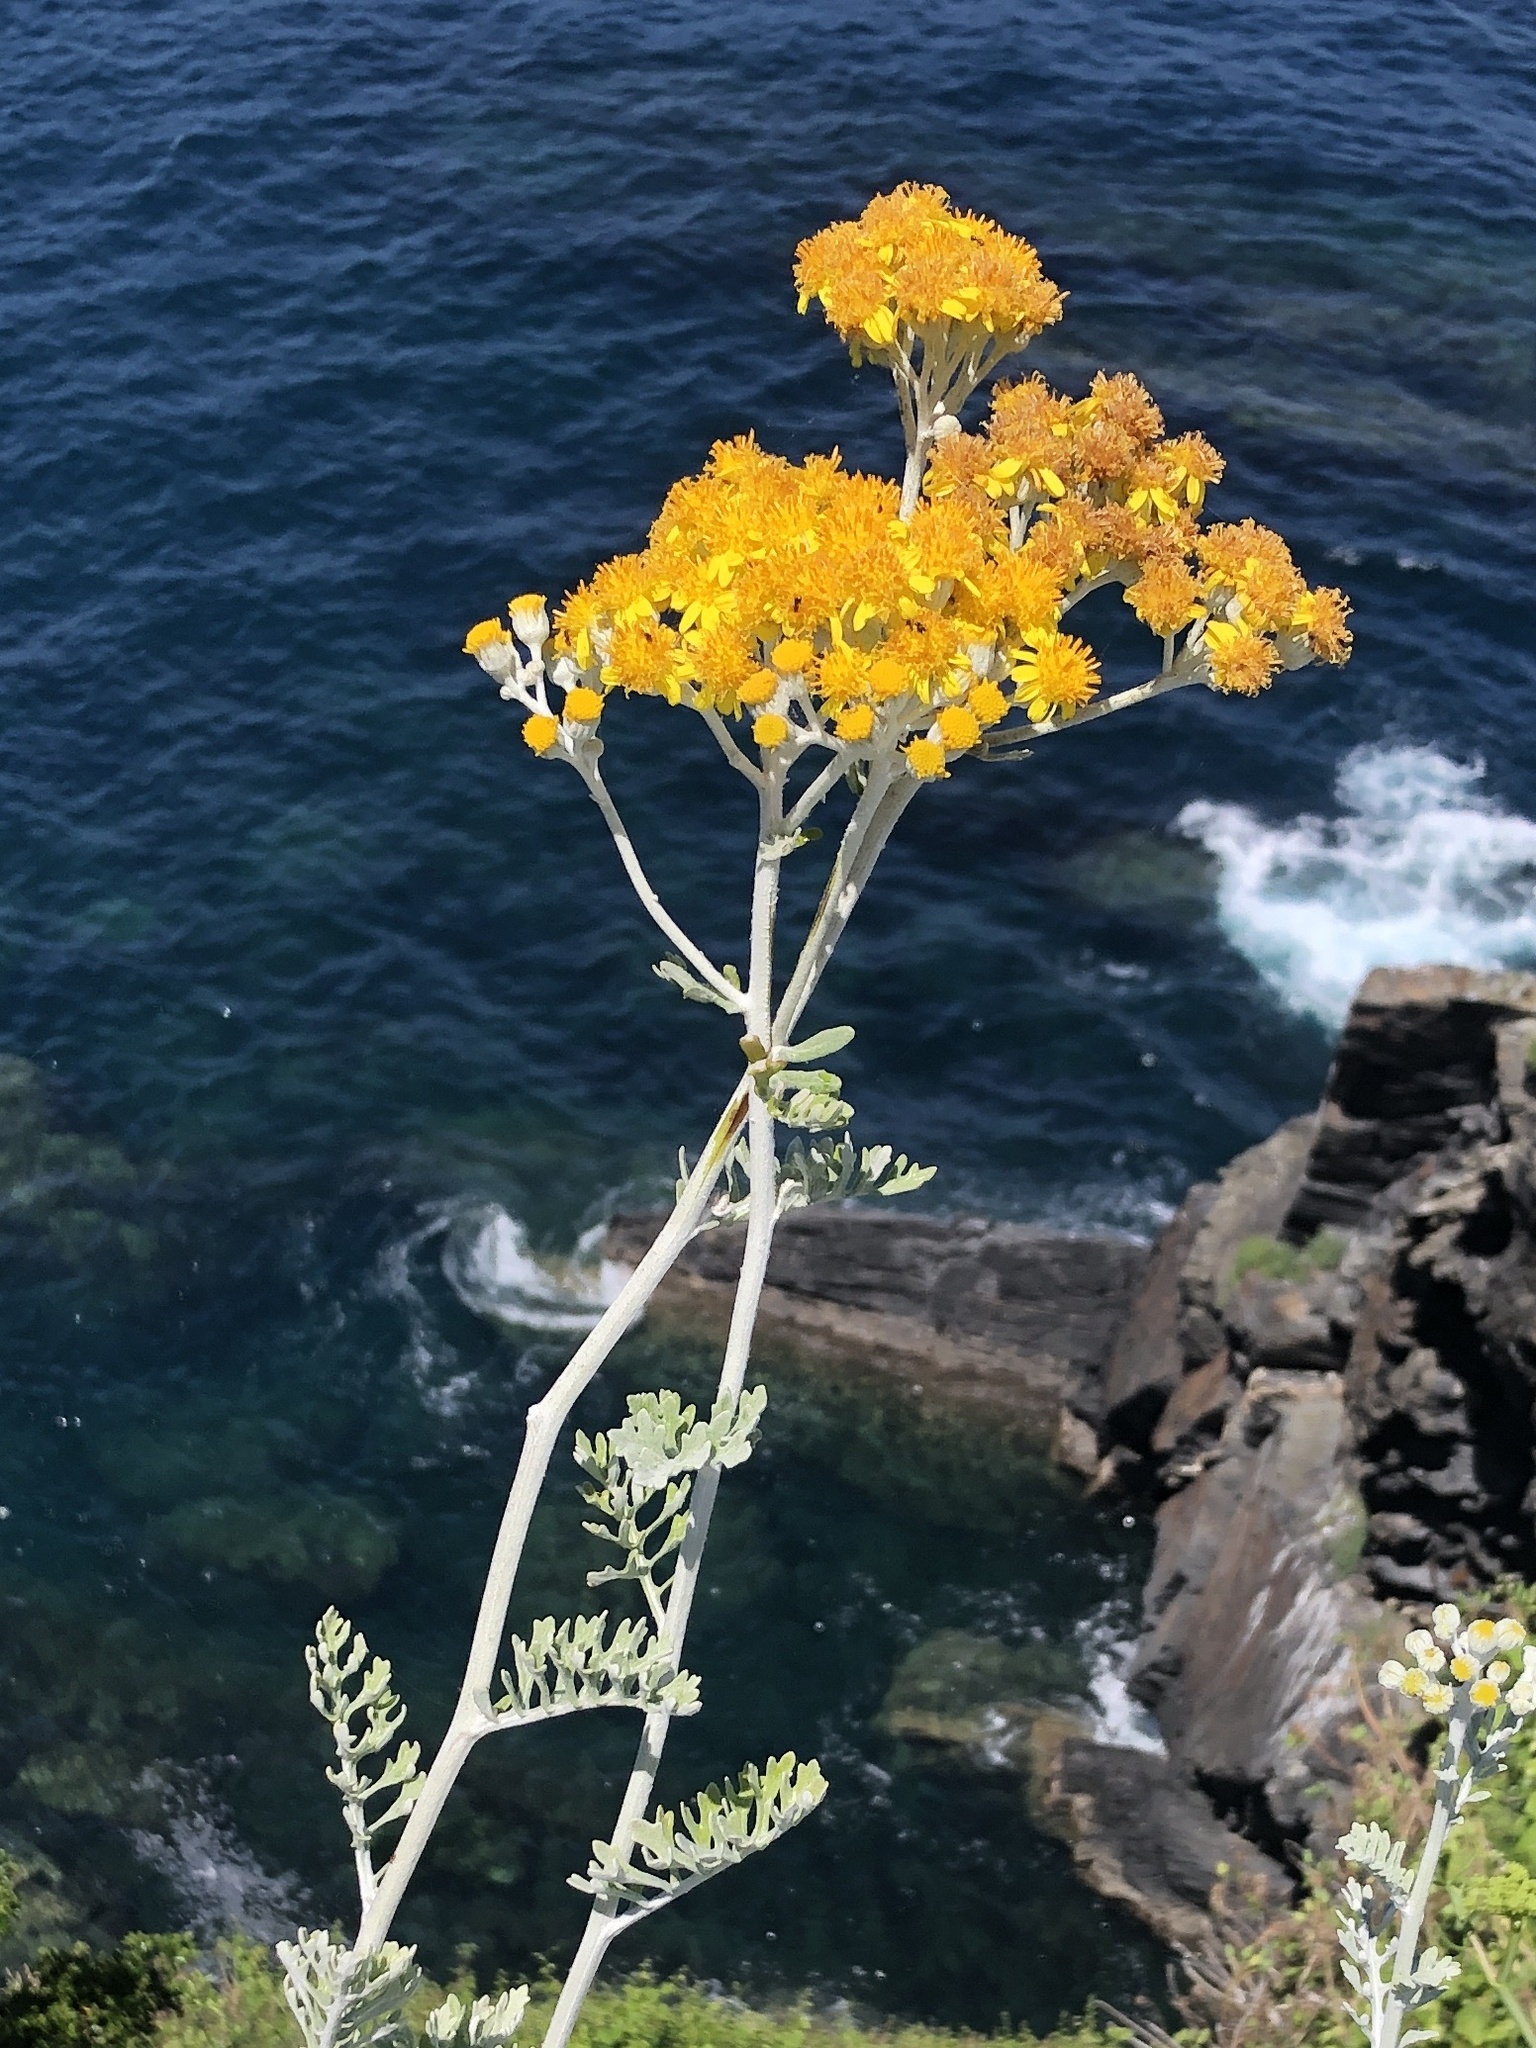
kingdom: Plantae
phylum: Tracheophyta
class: Magnoliopsida
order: Asterales
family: Asteraceae
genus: Jacobaea
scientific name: Jacobaea maritima
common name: Silver ragwort
